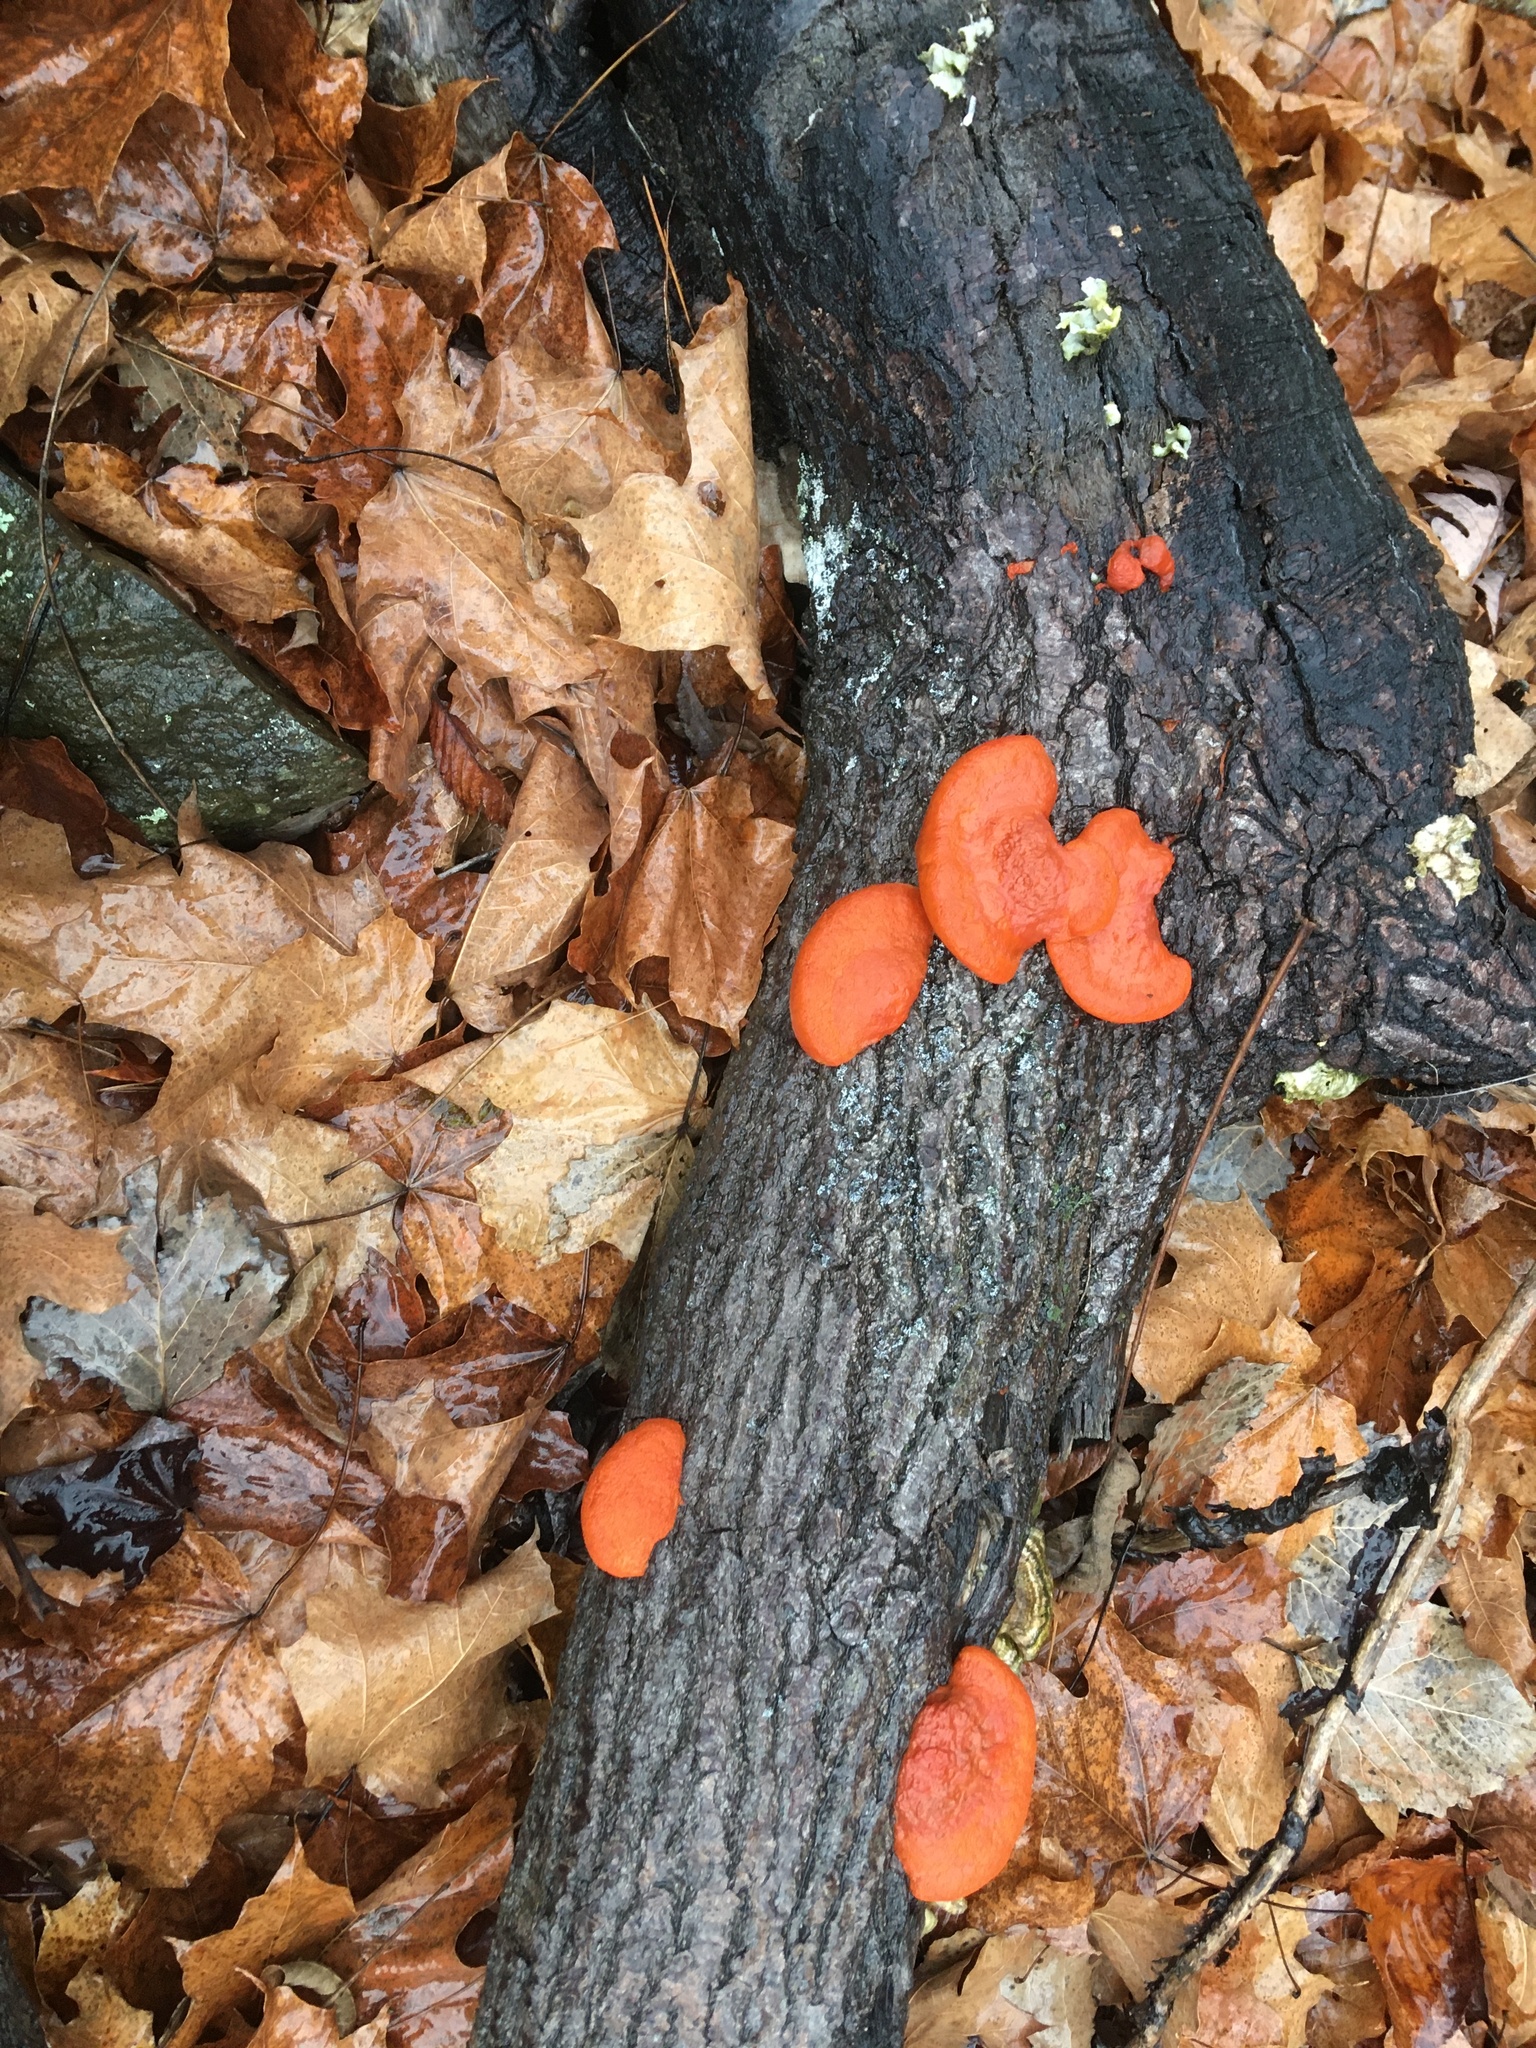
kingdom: Fungi
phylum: Basidiomycota
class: Agaricomycetes
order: Polyporales
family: Polyporaceae
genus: Trametes
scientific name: Trametes cinnabarina
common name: Northern cinnabar polypore
